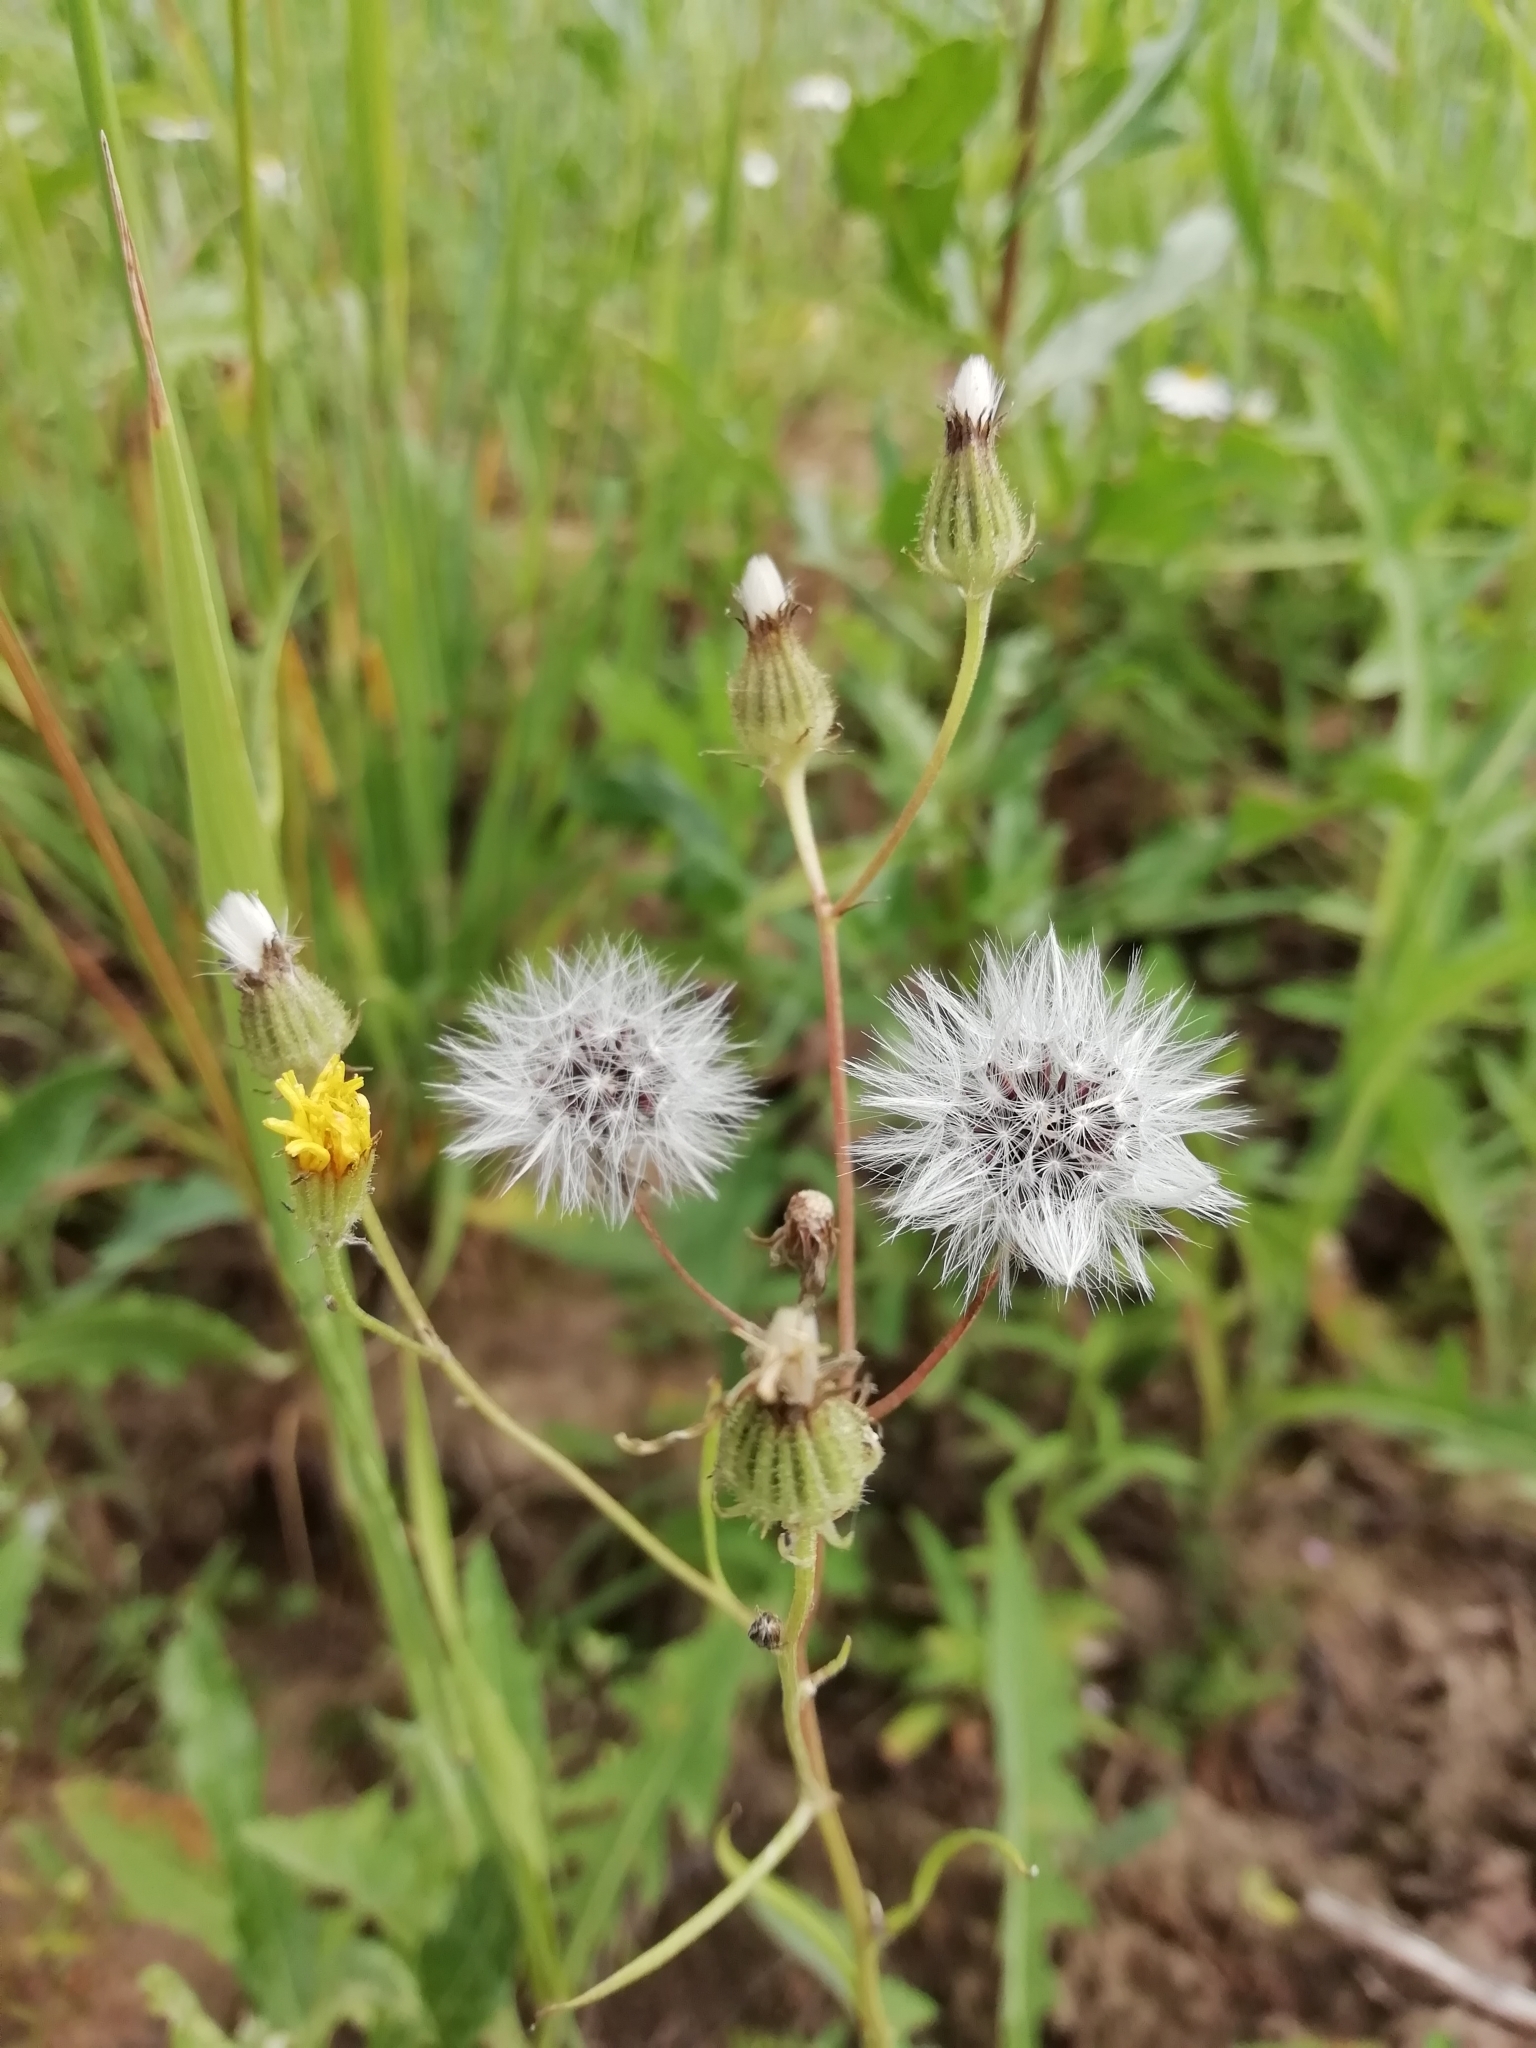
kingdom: Plantae
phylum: Tracheophyta
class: Magnoliopsida
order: Asterales
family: Asteraceae
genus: Crepis
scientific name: Crepis tectorum
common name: Narrow-leaved hawk's-beard
